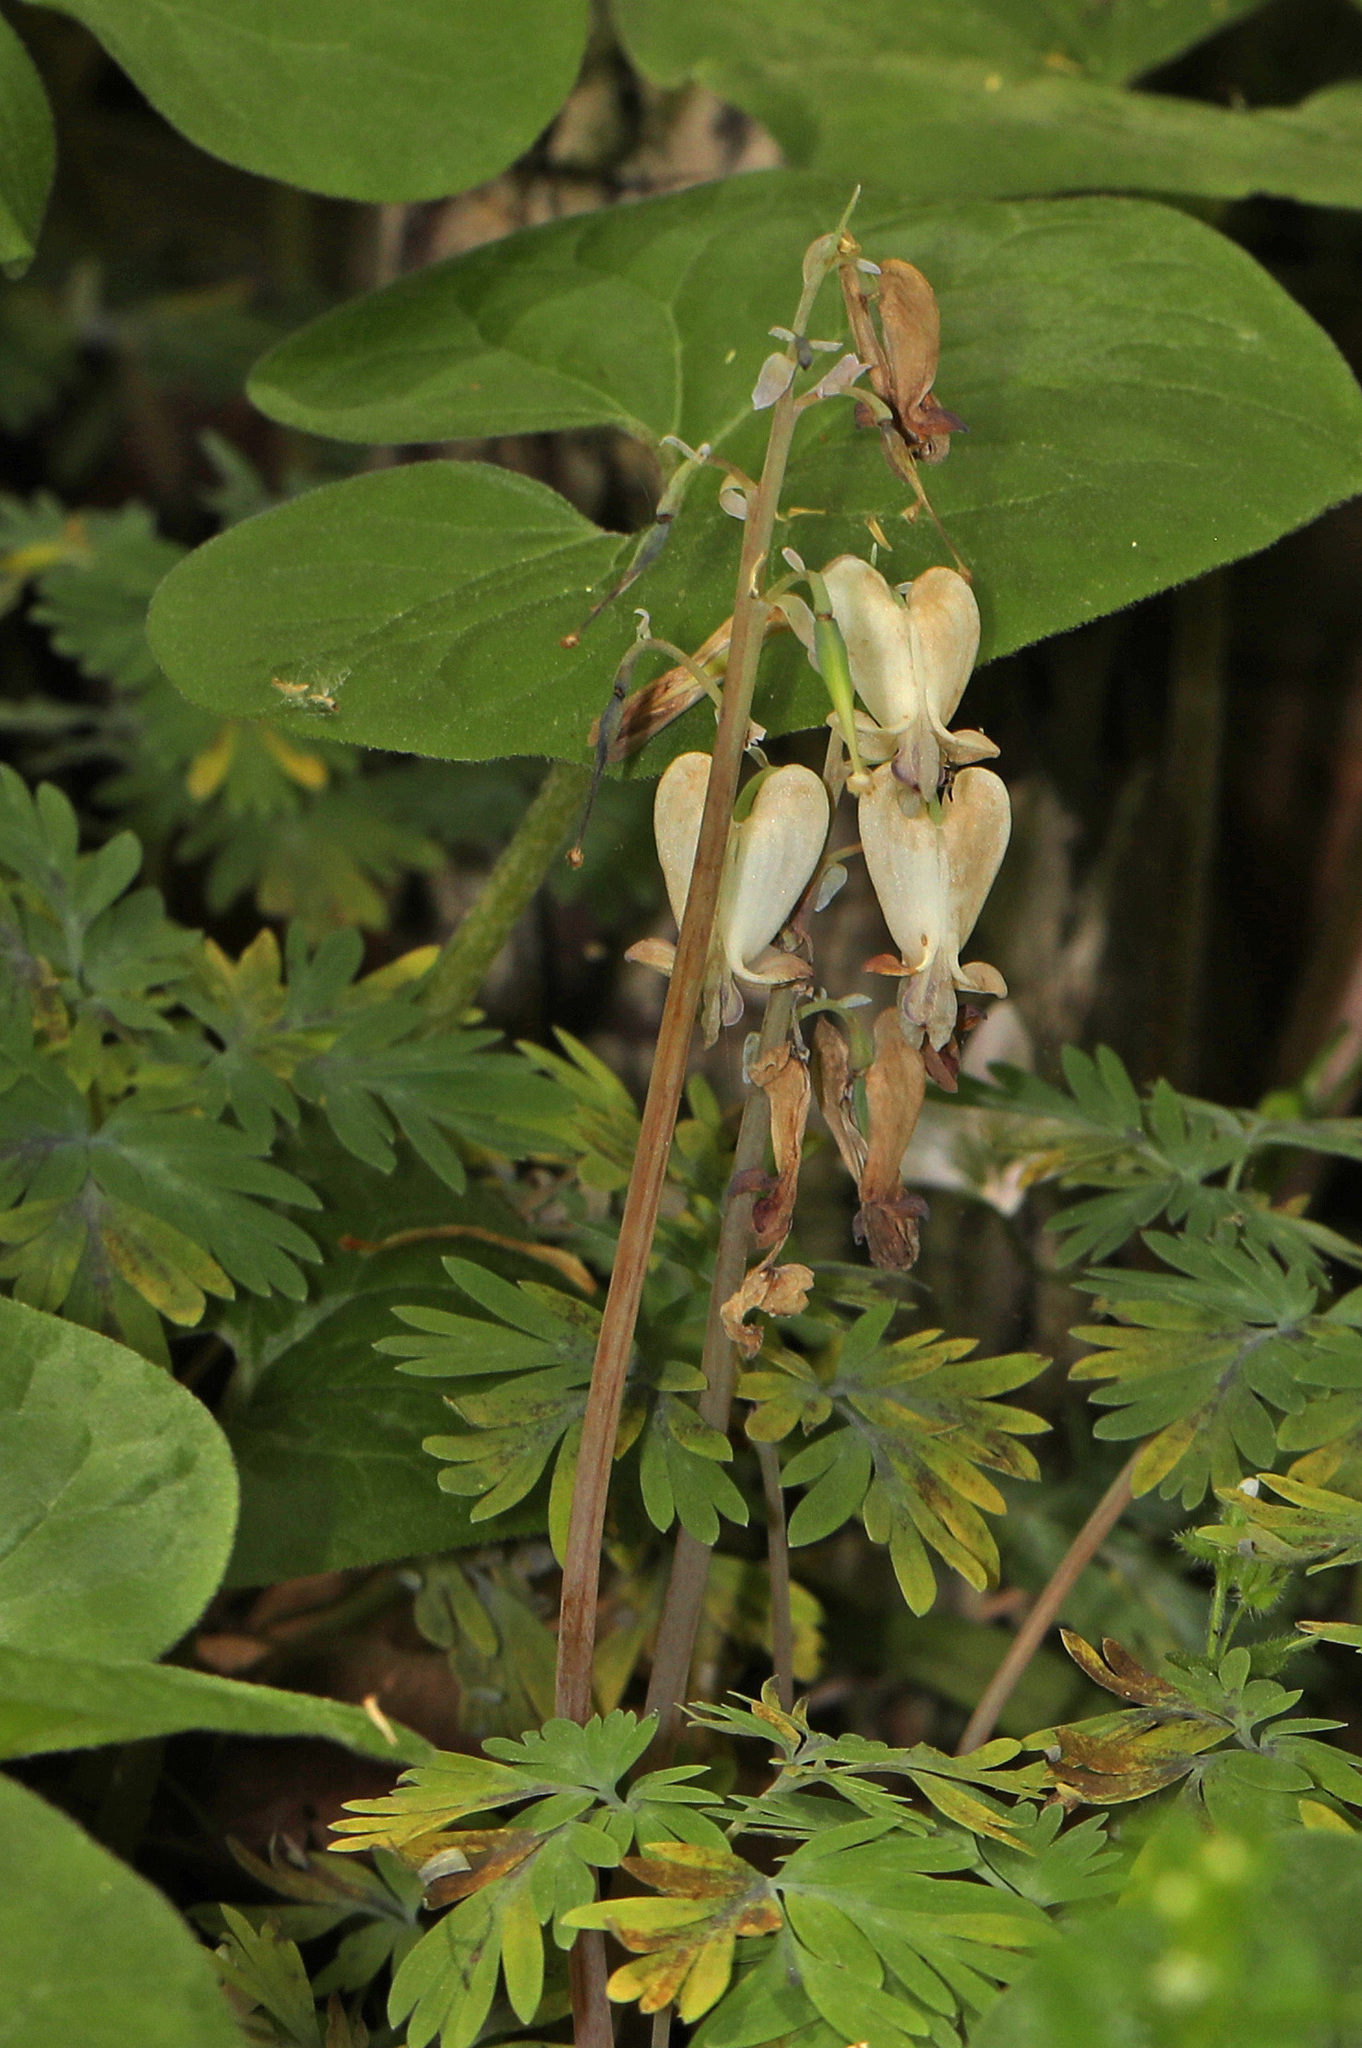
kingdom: Plantae
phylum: Tracheophyta
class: Magnoliopsida
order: Ranunculales
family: Papaveraceae
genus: Dicentra
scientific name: Dicentra canadensis
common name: Squirrel-corn
